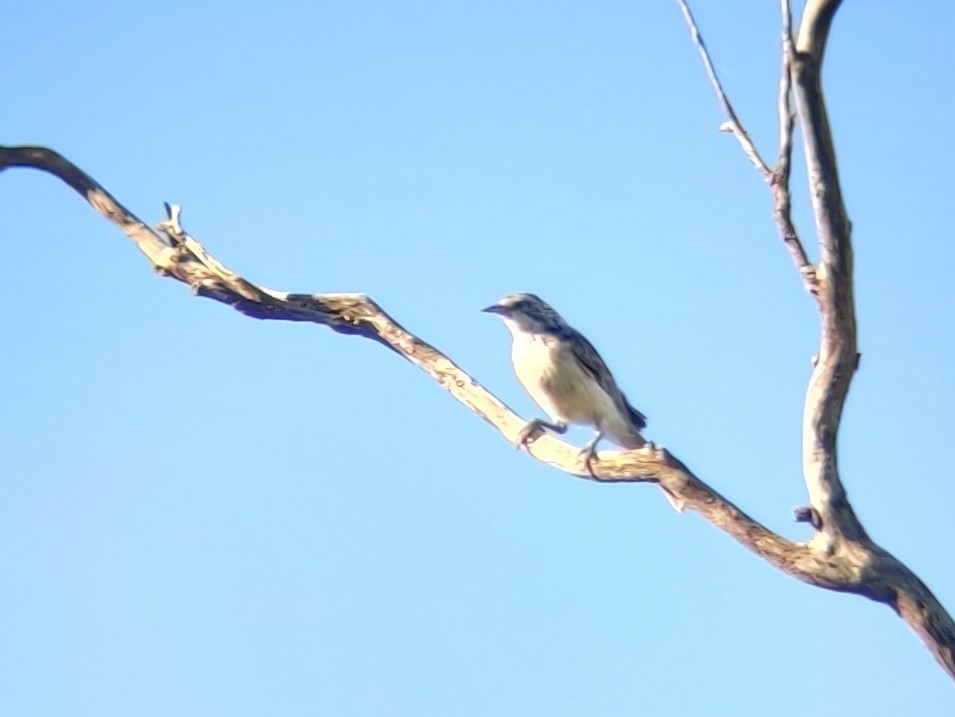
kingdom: Animalia
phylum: Chordata
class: Aves
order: Passeriformes
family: Meliphagidae
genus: Plectorhyncha
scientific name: Plectorhyncha lanceolata
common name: Striped honeyeater
